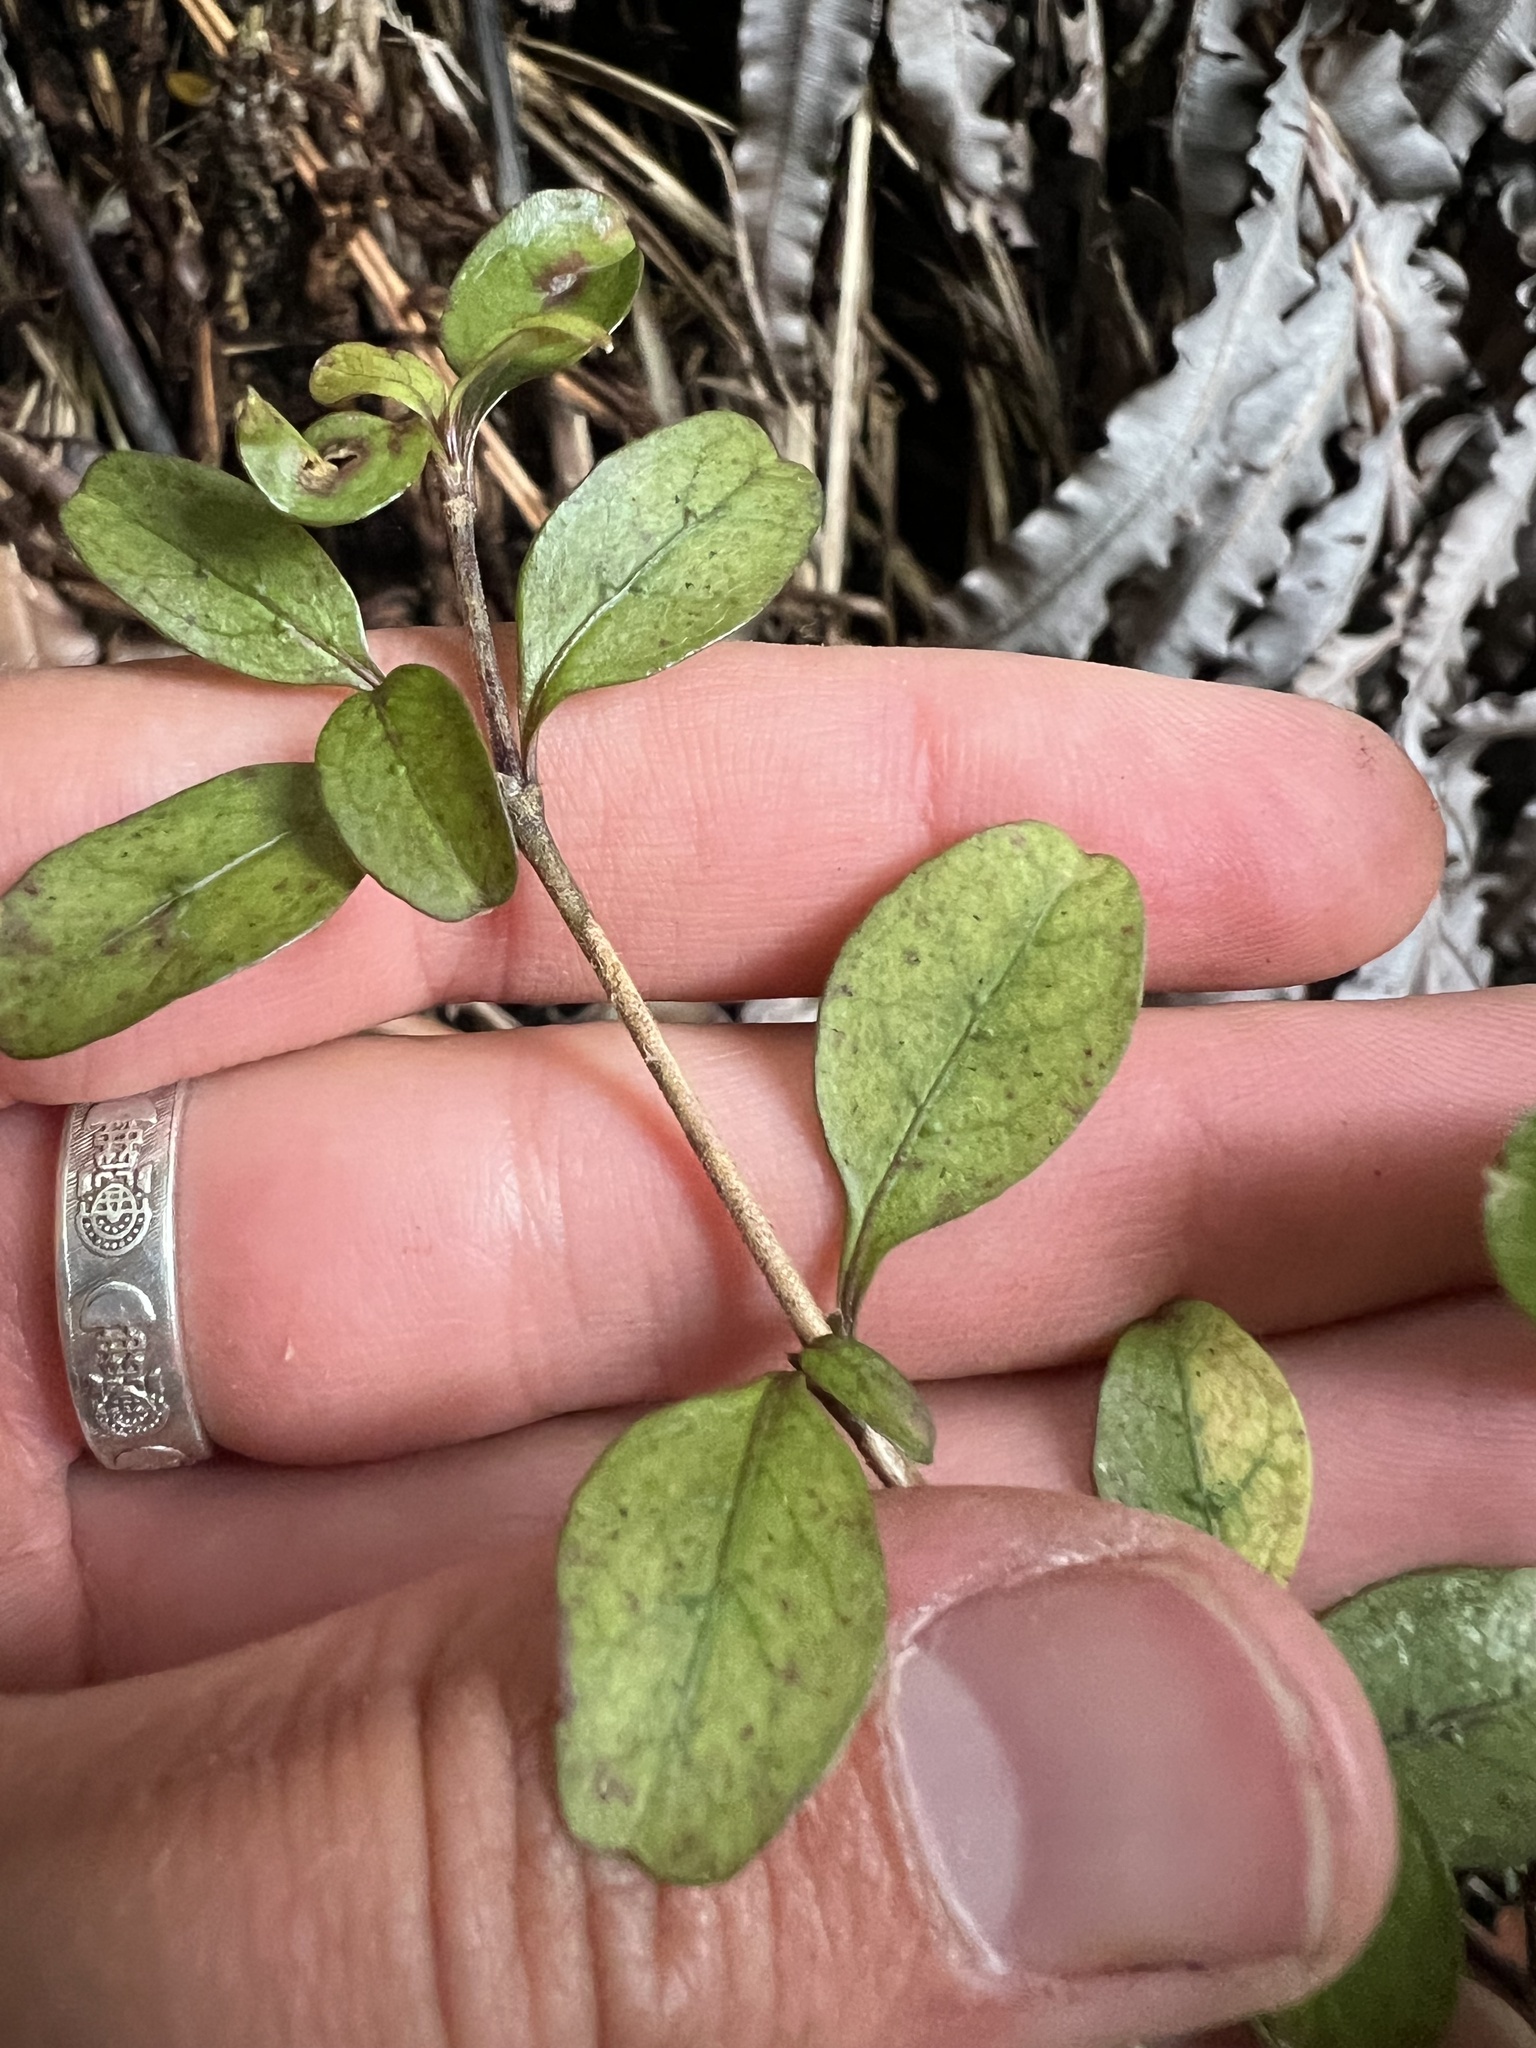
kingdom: Plantae
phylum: Tracheophyta
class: Magnoliopsida
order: Gentianales
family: Rubiaceae
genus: Coprosma
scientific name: Coprosma colensoi
